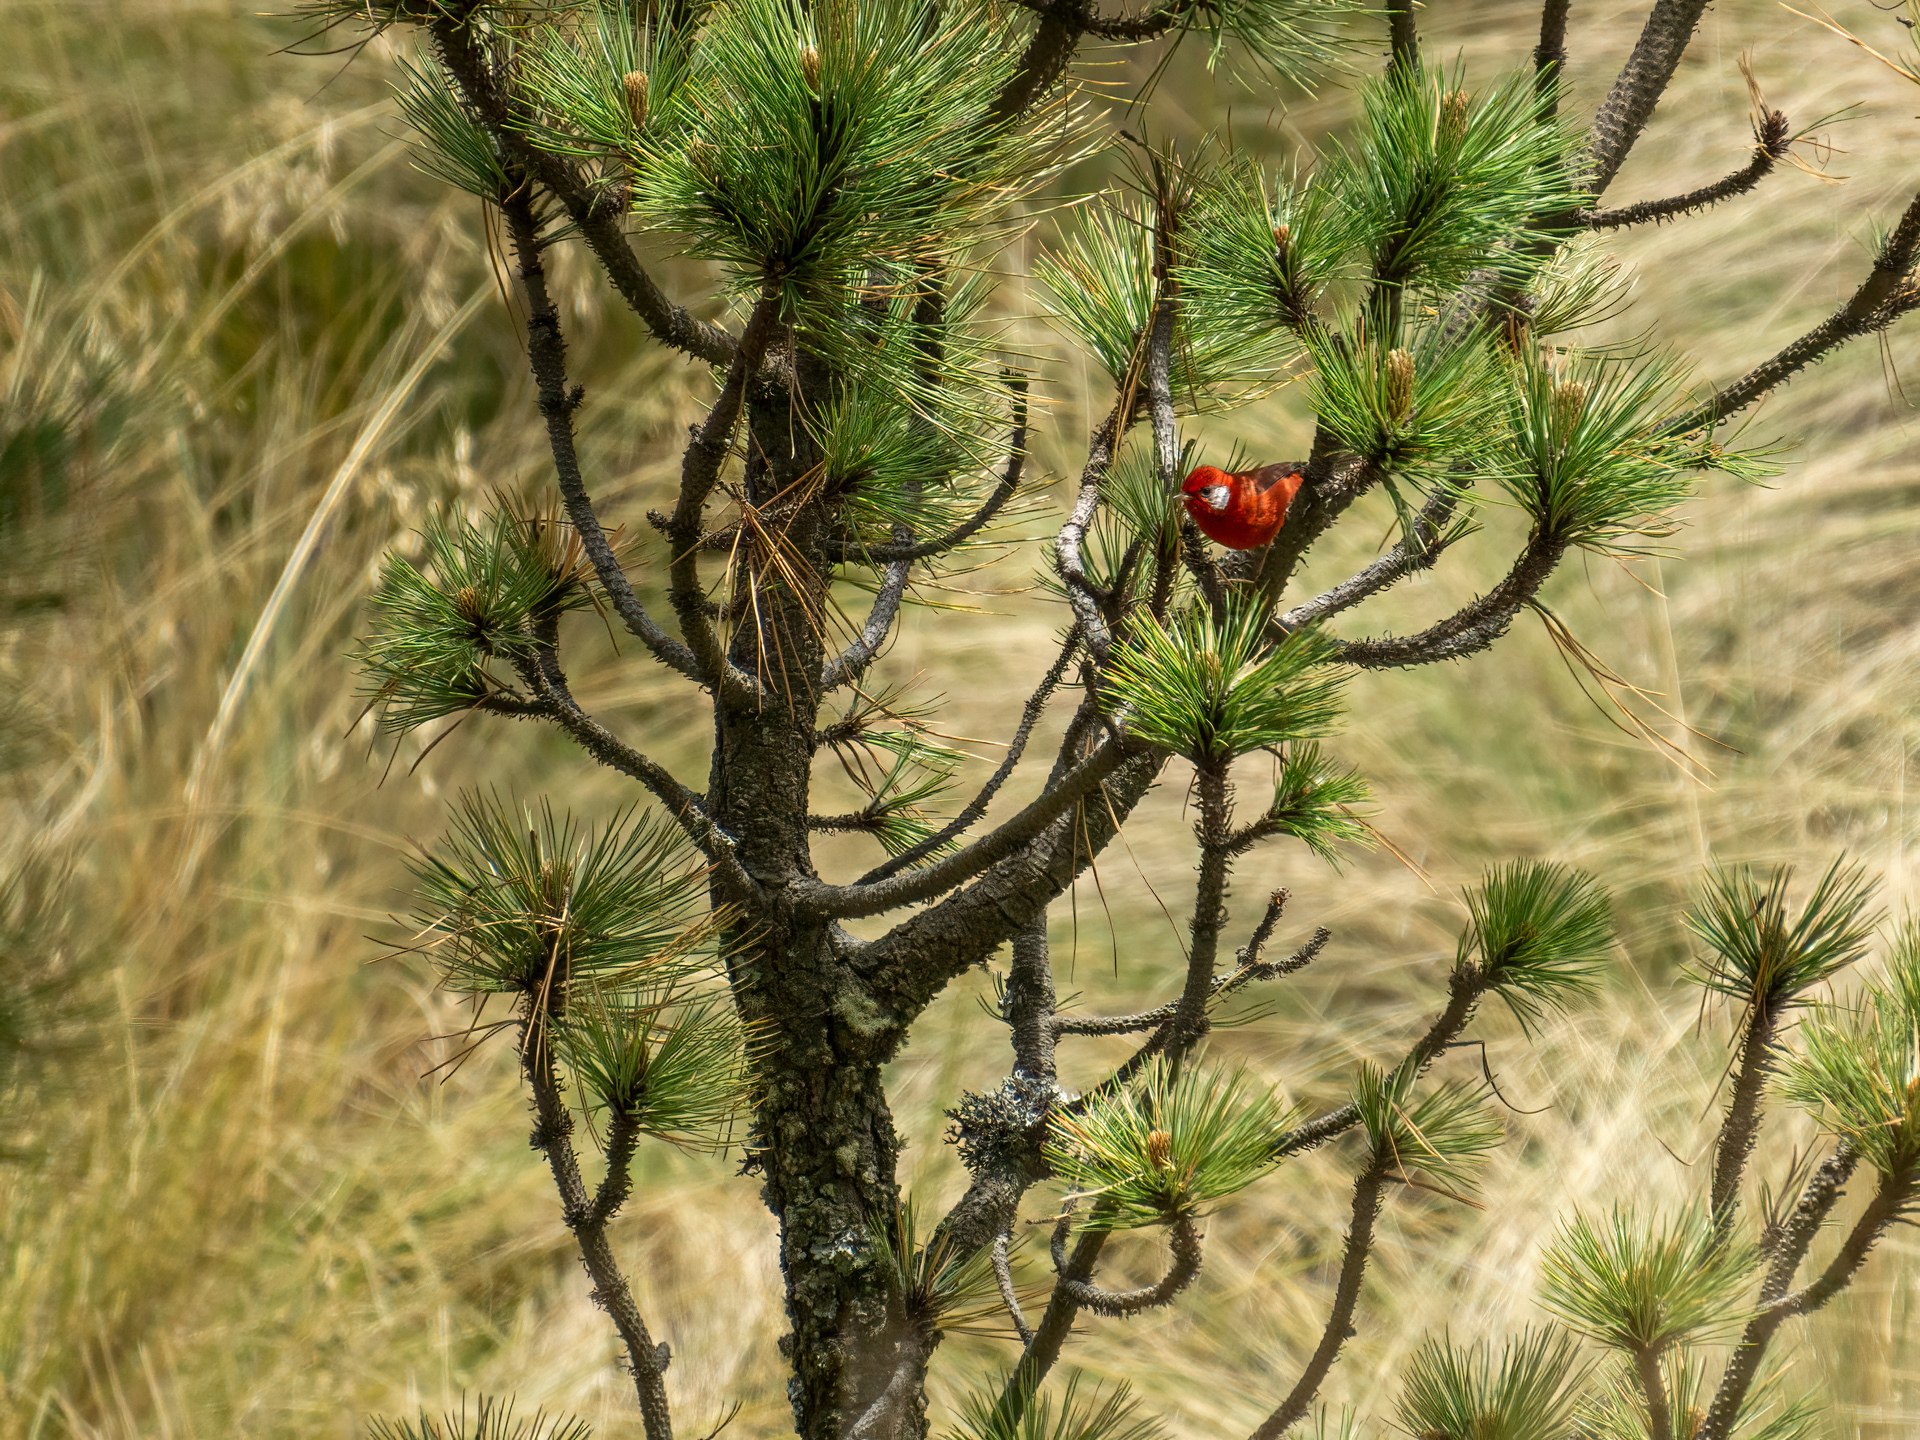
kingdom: Animalia
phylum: Chordata
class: Aves
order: Passeriformes
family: Parulidae
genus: Cardellina
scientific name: Cardellina rubra
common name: Red warbler
